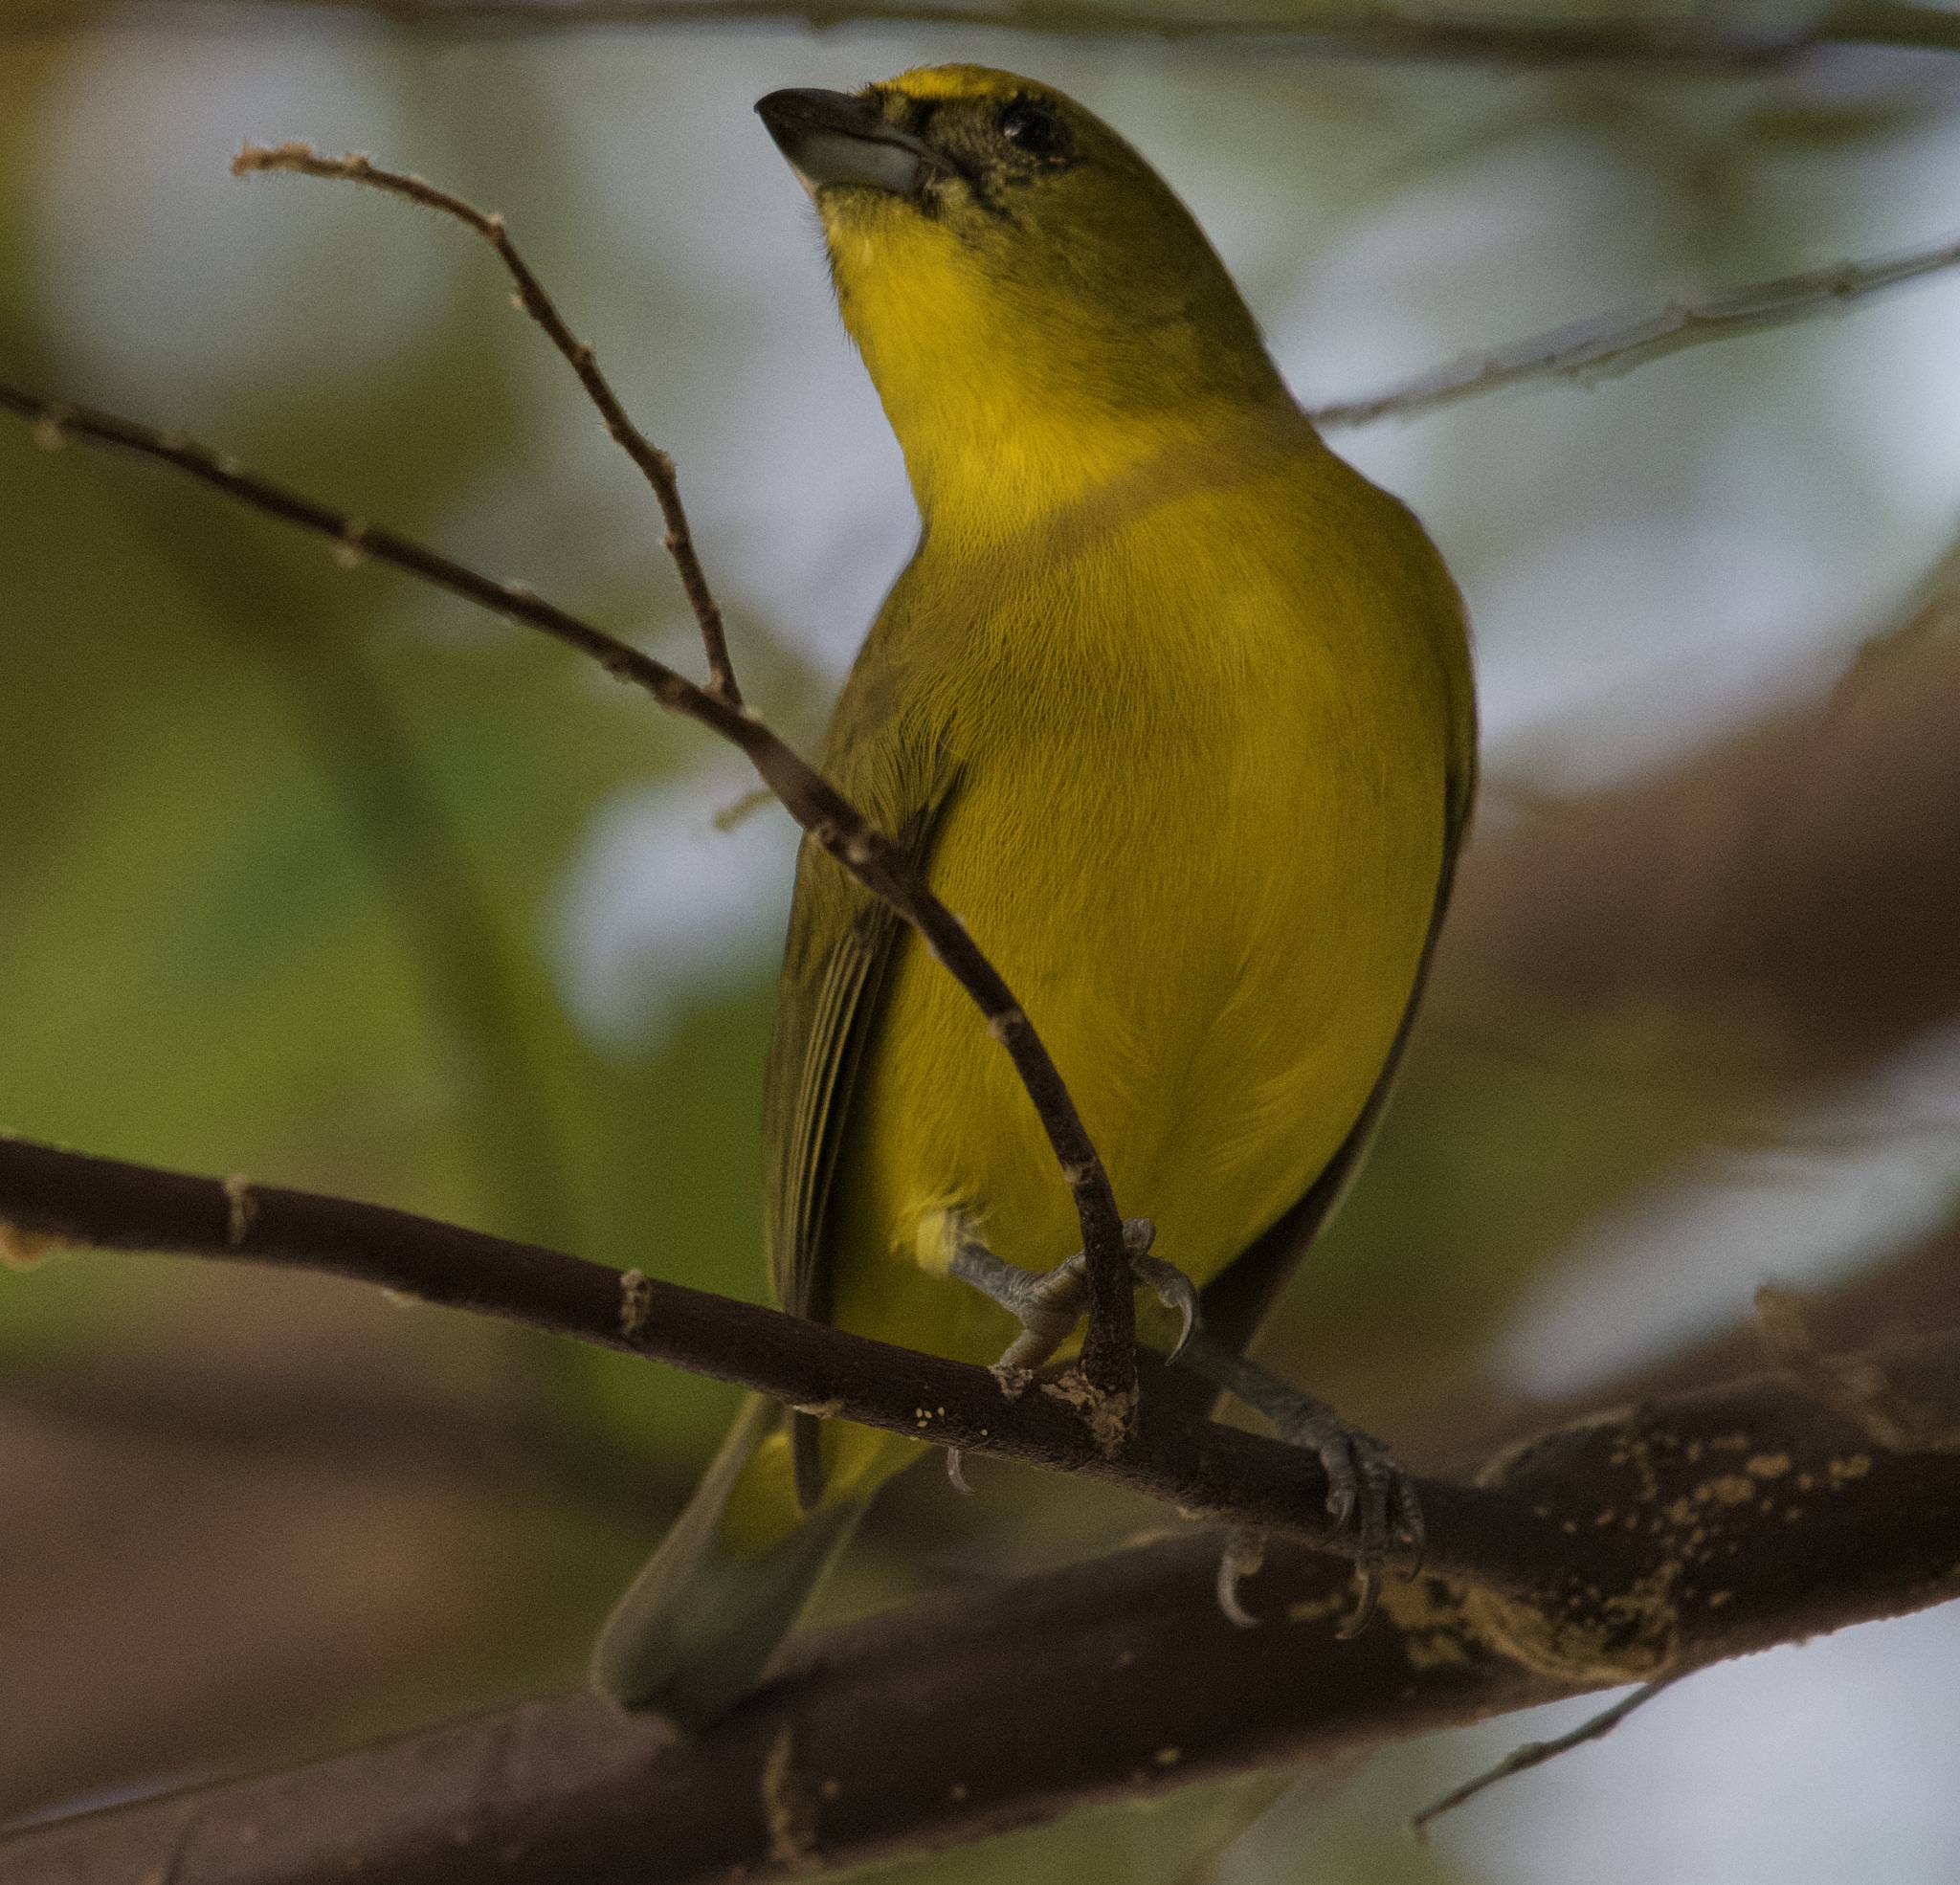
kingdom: Animalia
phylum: Chordata
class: Aves
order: Passeriformes
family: Fringillidae
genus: Euphonia
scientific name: Euphonia laniirostris
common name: Thick-billed euphonia
